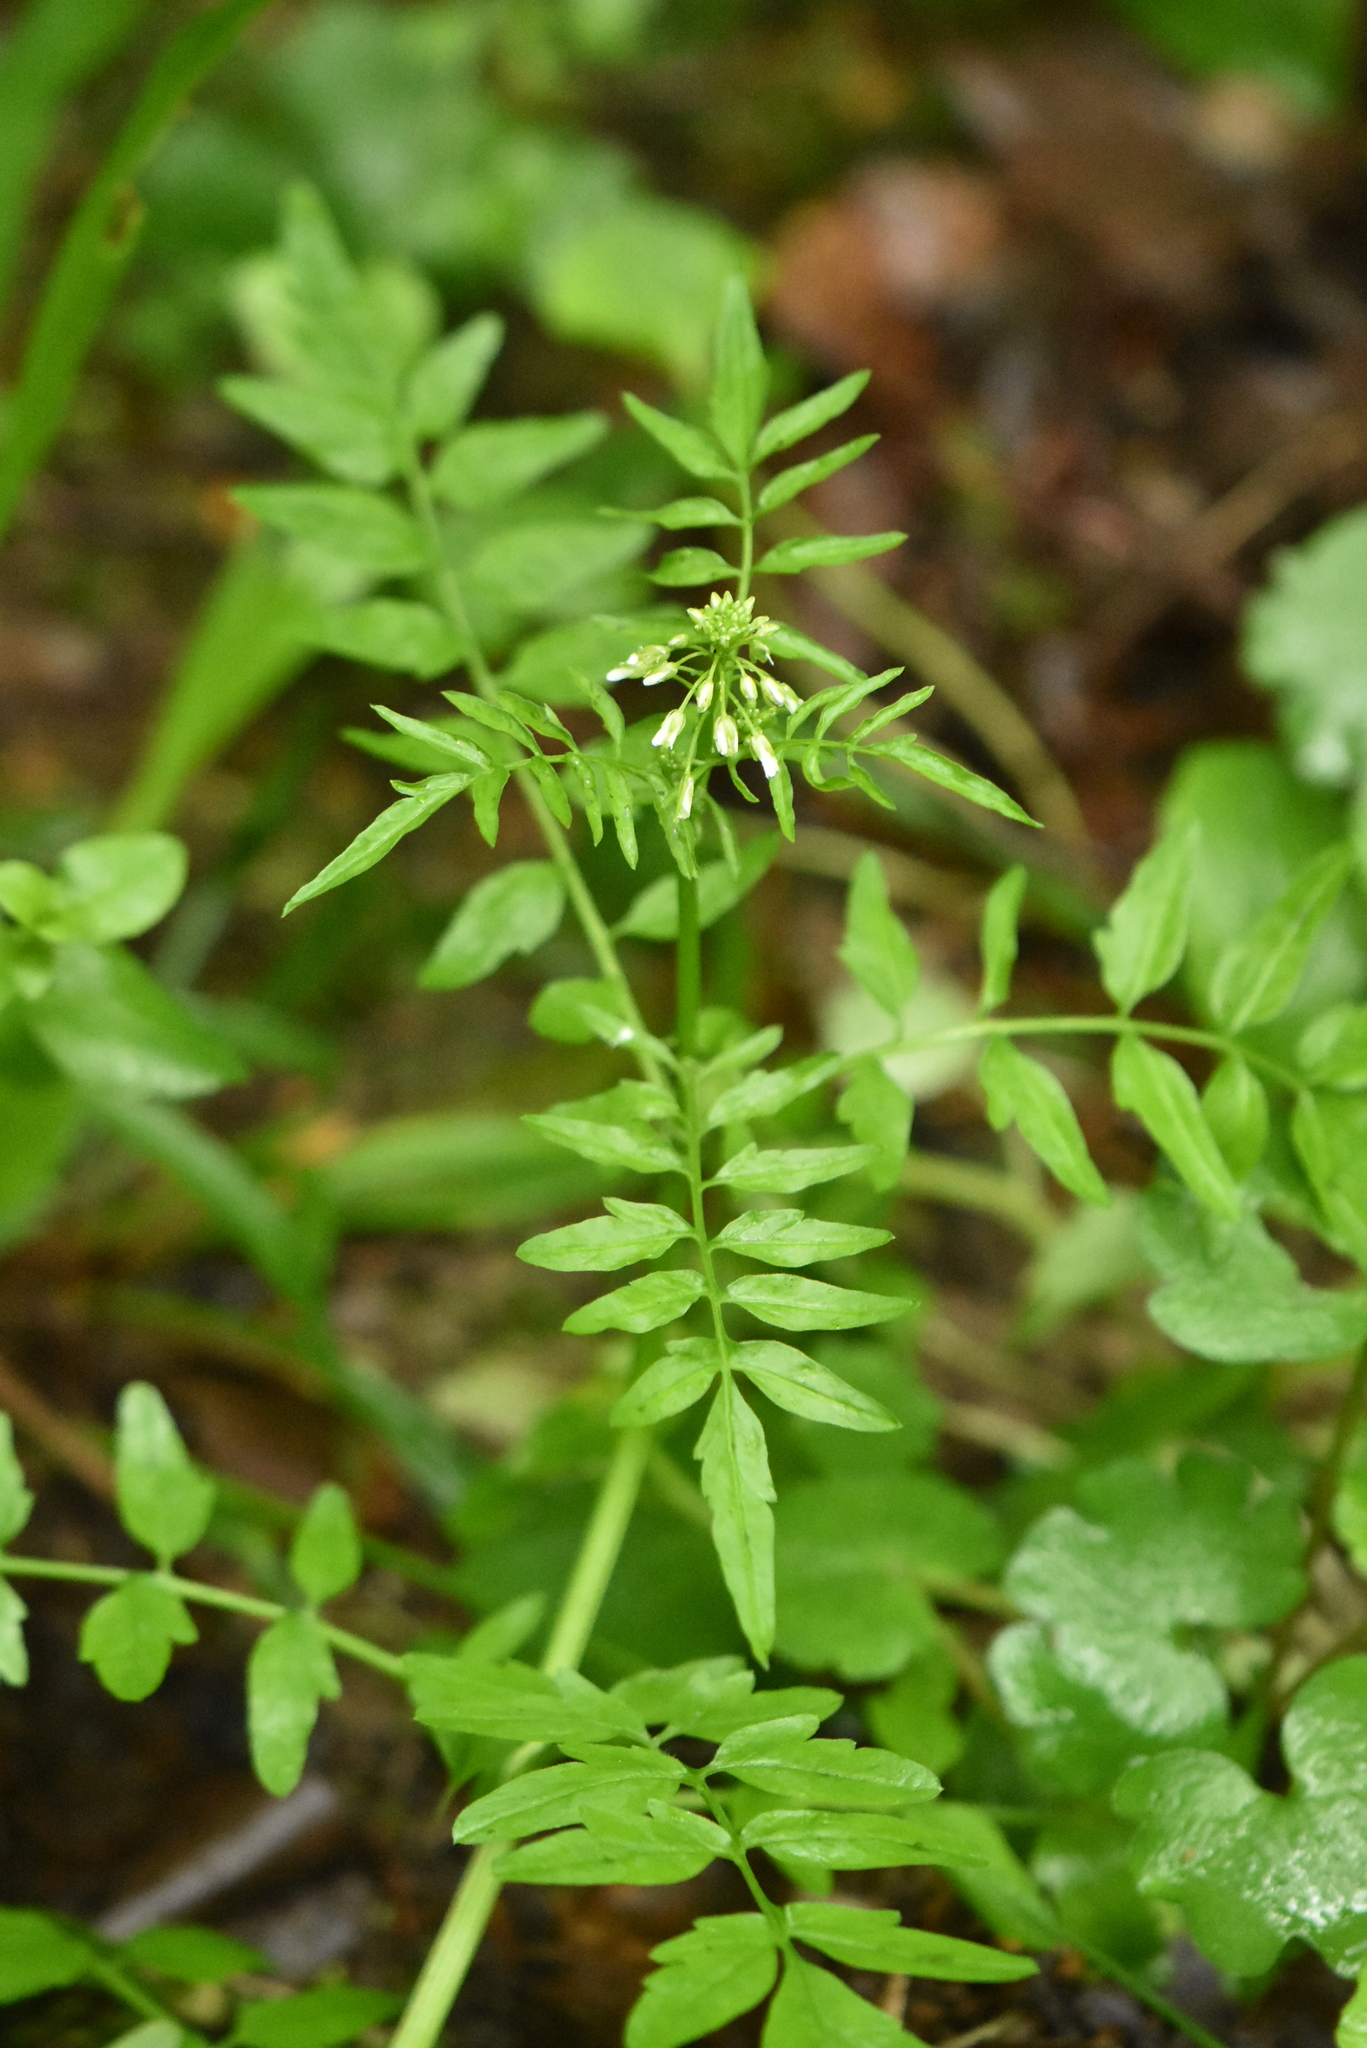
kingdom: Plantae
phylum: Tracheophyta
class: Magnoliopsida
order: Brassicales
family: Brassicaceae
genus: Cardamine
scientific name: Cardamine impatiens
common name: Narrow-leaved bitter-cress
